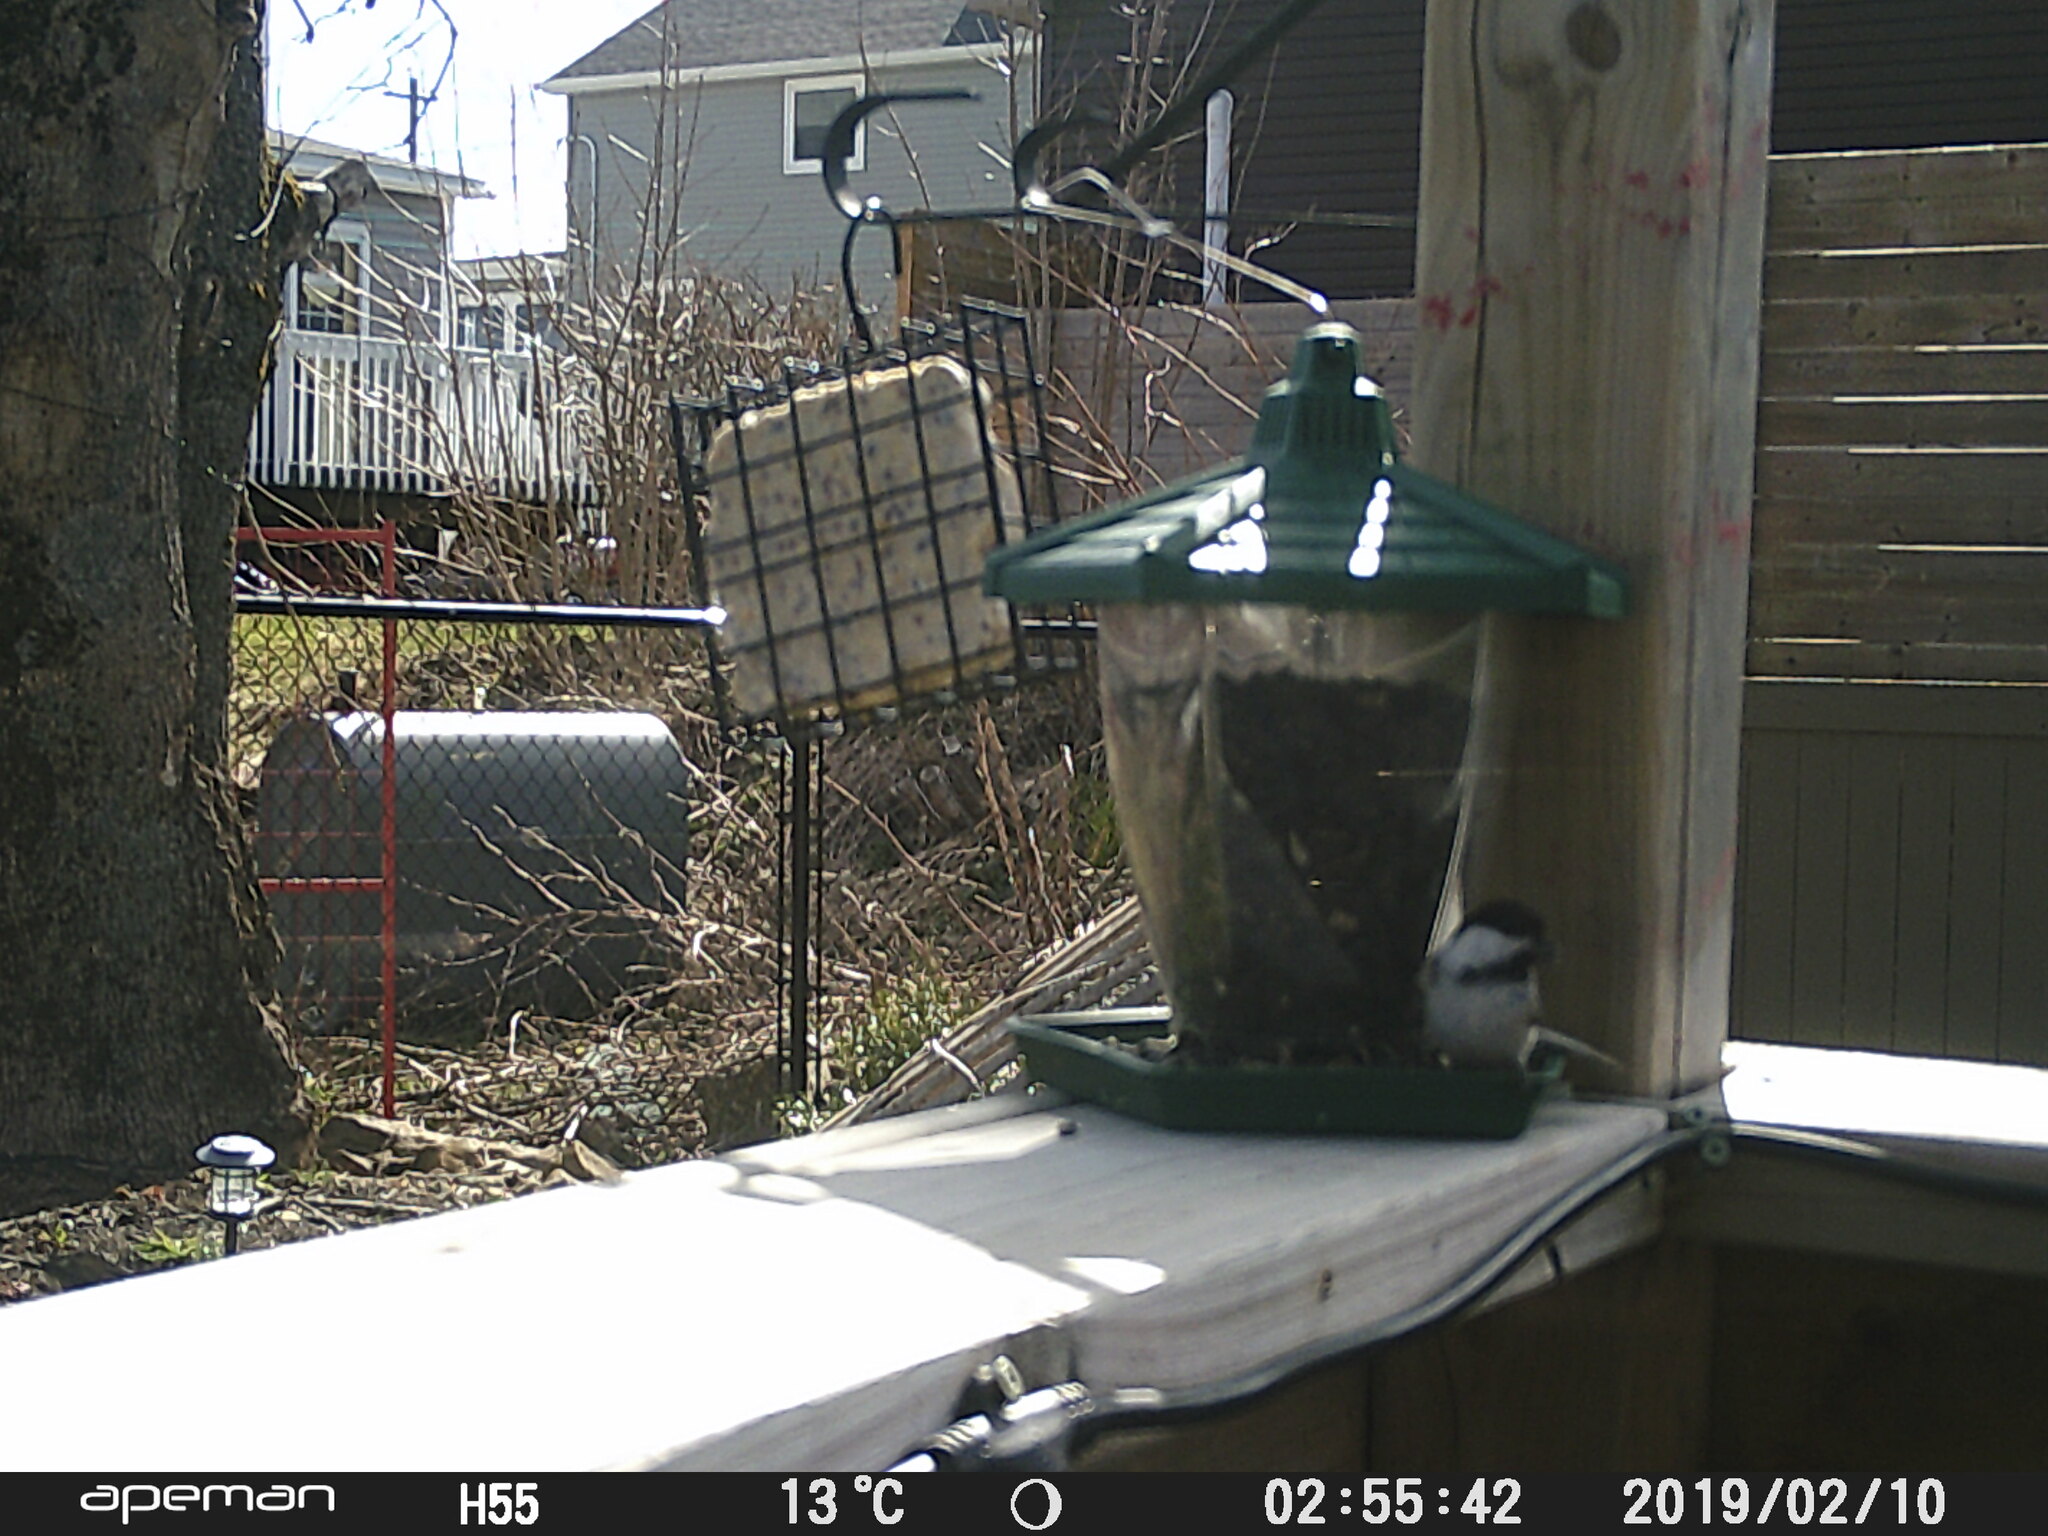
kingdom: Animalia
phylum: Chordata
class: Aves
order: Passeriformes
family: Paridae
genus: Poecile
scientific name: Poecile atricapillus
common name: Black-capped chickadee
